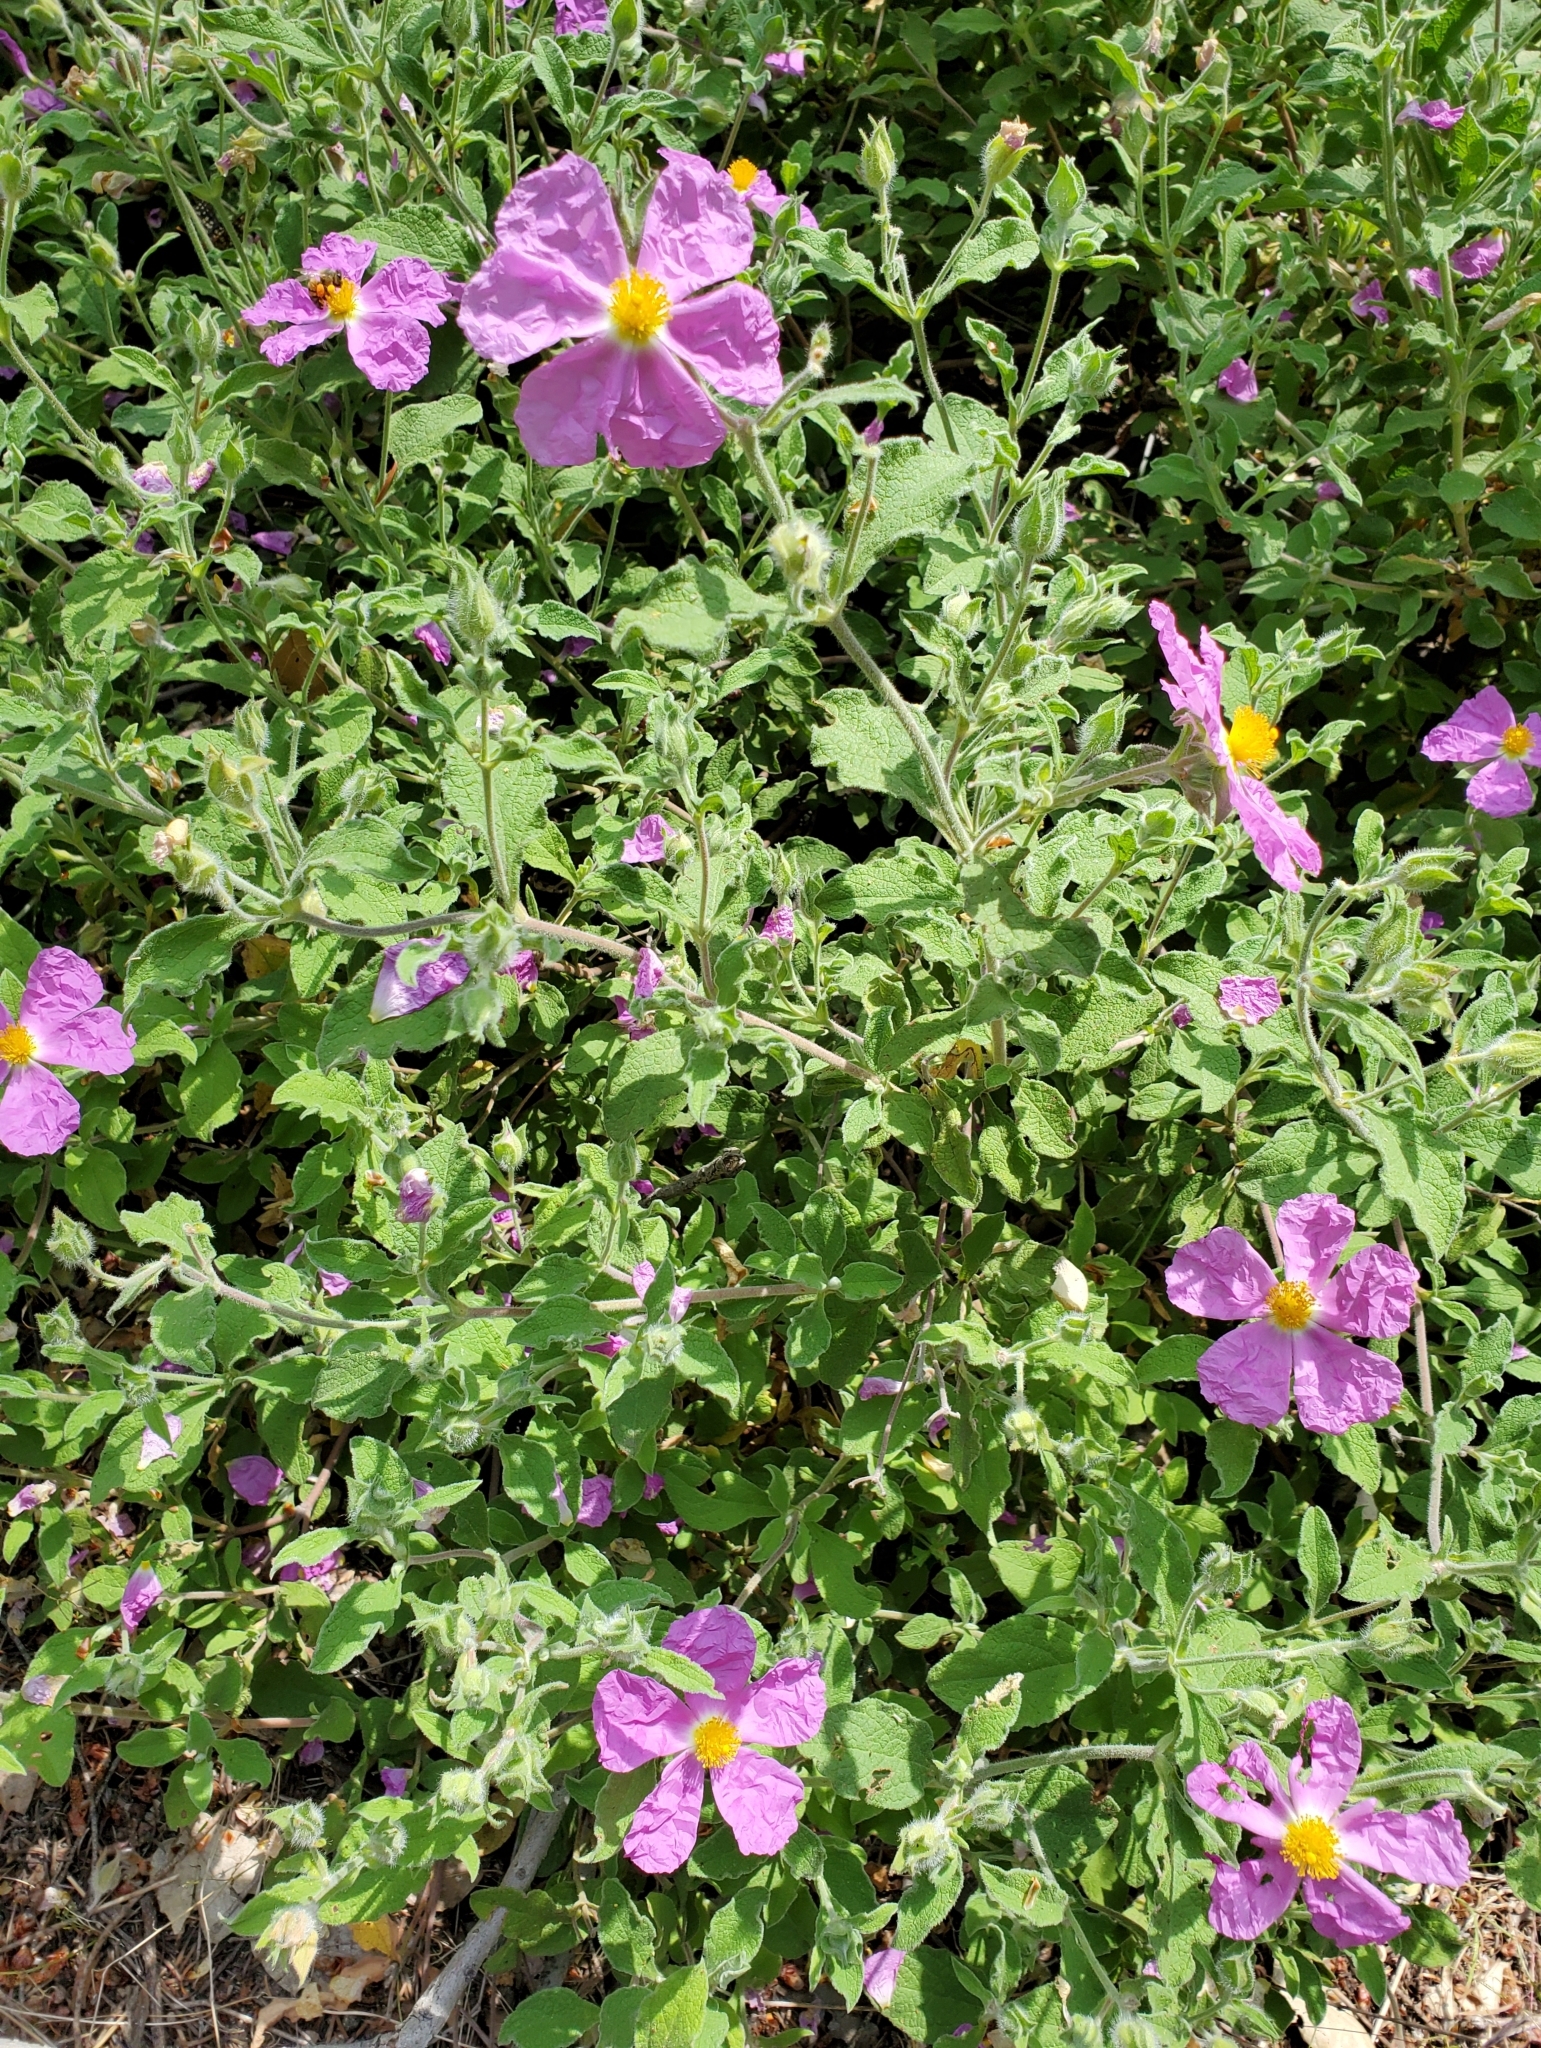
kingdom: Plantae
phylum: Tracheophyta
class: Magnoliopsida
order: Malvales
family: Cistaceae
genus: Cistus
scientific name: Cistus creticus
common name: Cretan rockrose
